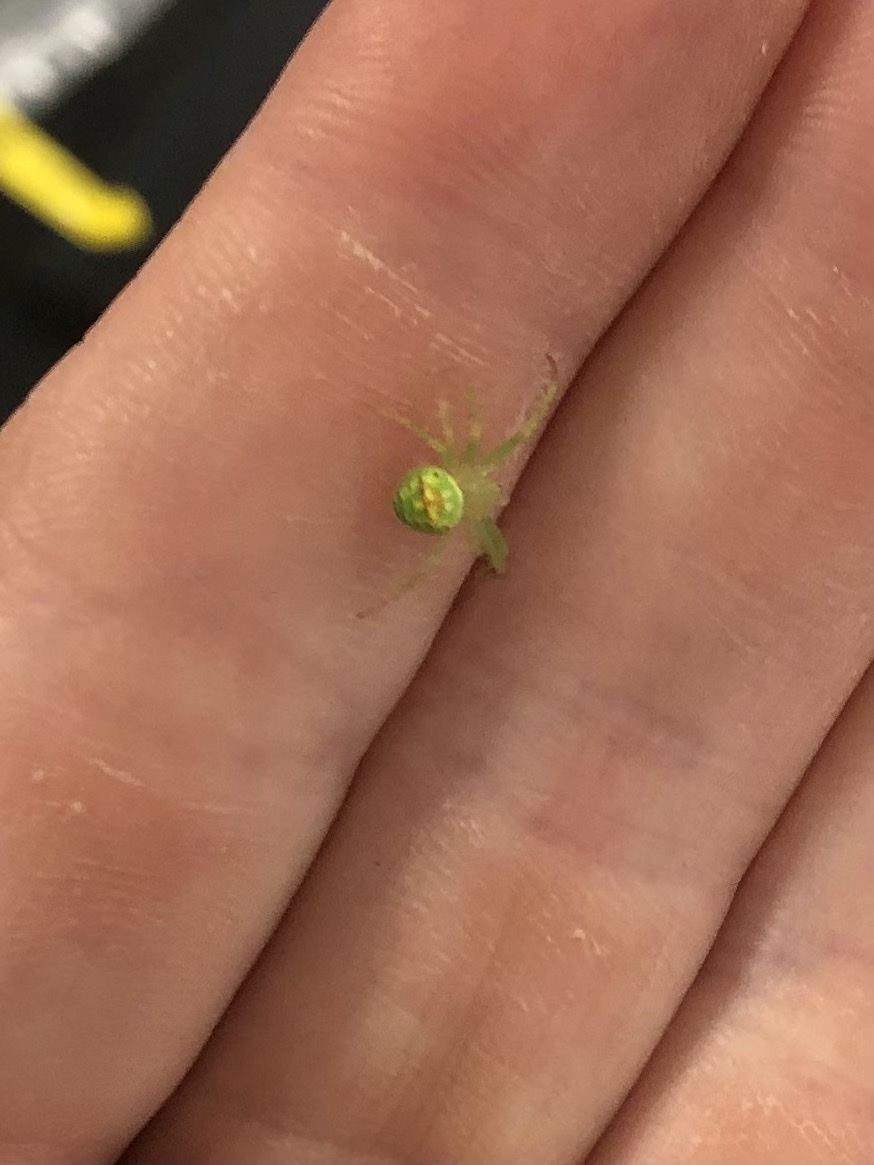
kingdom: Animalia
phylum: Arthropoda
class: Arachnida
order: Araneae
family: Araneidae
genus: Araneus
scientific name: Araneus cingulatus
